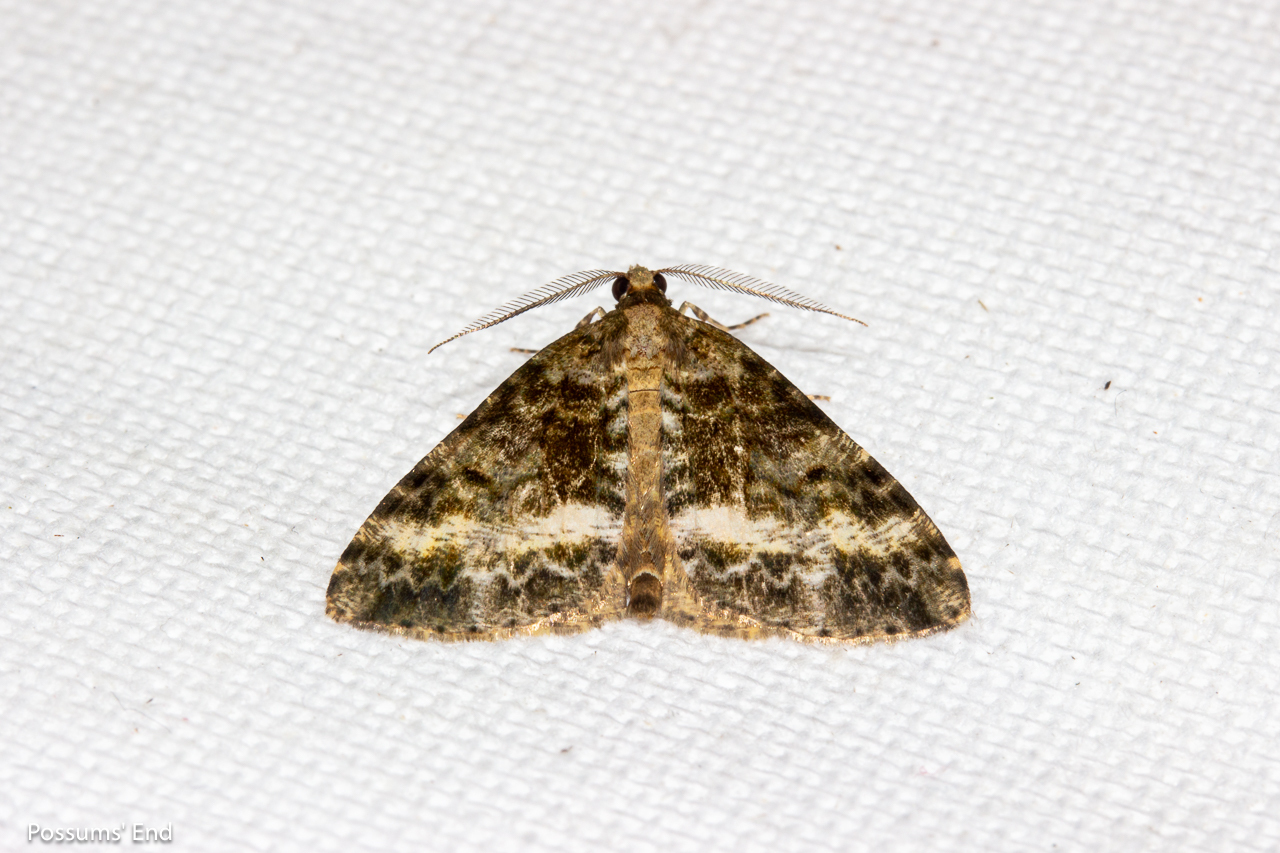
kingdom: Animalia
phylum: Arthropoda
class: Insecta
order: Lepidoptera
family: Geometridae
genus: Pseudocoremia
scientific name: Pseudocoremia lactiflua
